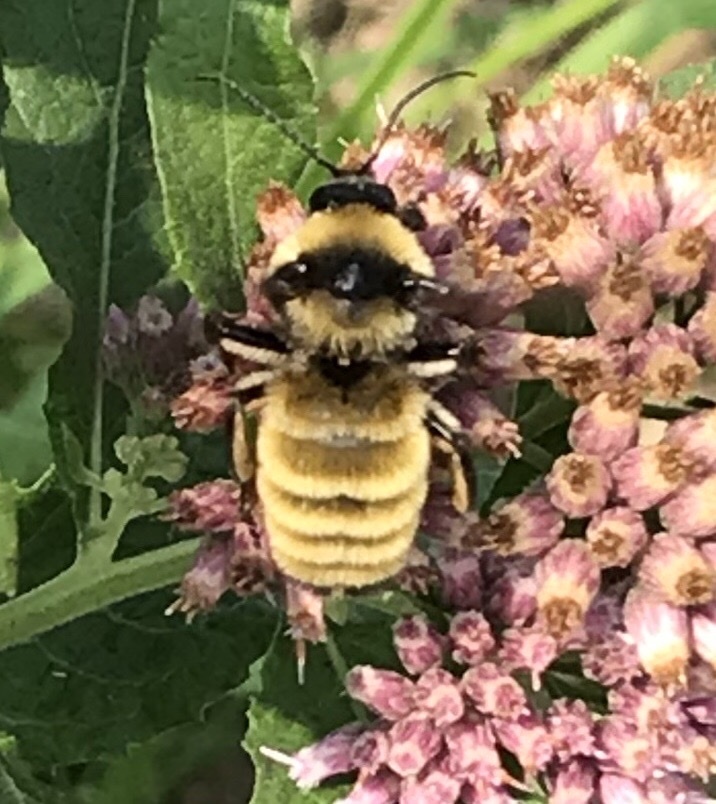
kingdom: Animalia
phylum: Arthropoda
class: Insecta
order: Hymenoptera
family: Apidae
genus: Bombus
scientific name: Bombus pensylvanicus
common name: Bumble bee
